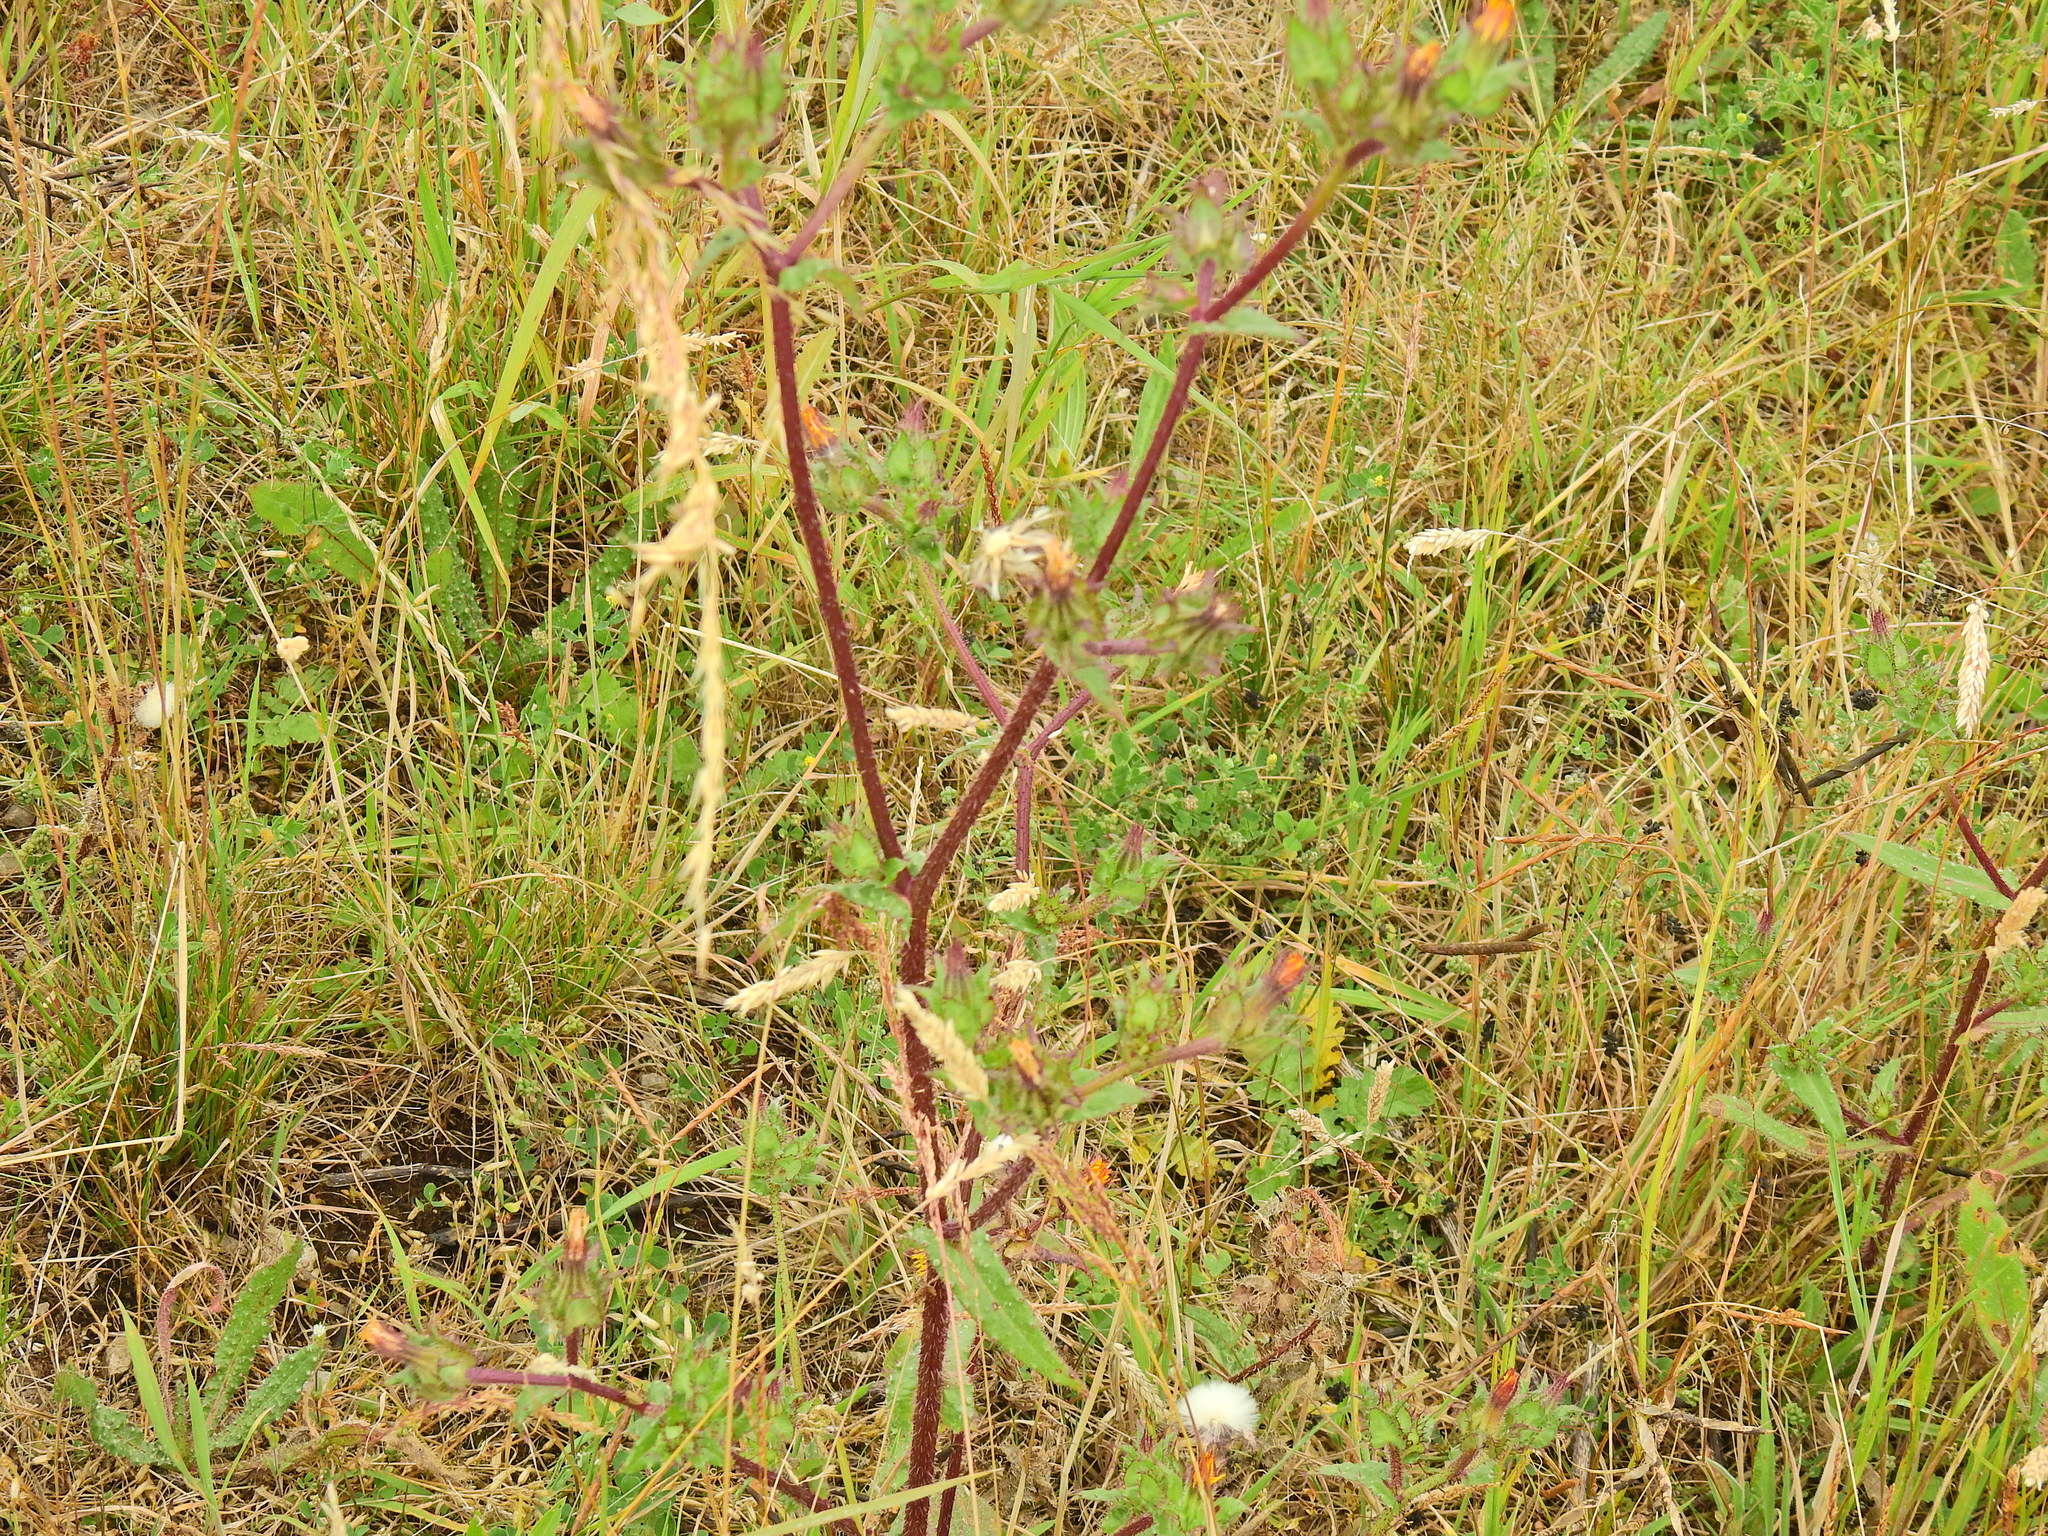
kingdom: Plantae
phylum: Tracheophyta
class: Magnoliopsida
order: Asterales
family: Asteraceae
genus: Helminthotheca
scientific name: Helminthotheca echioides
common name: Ox-tongue
